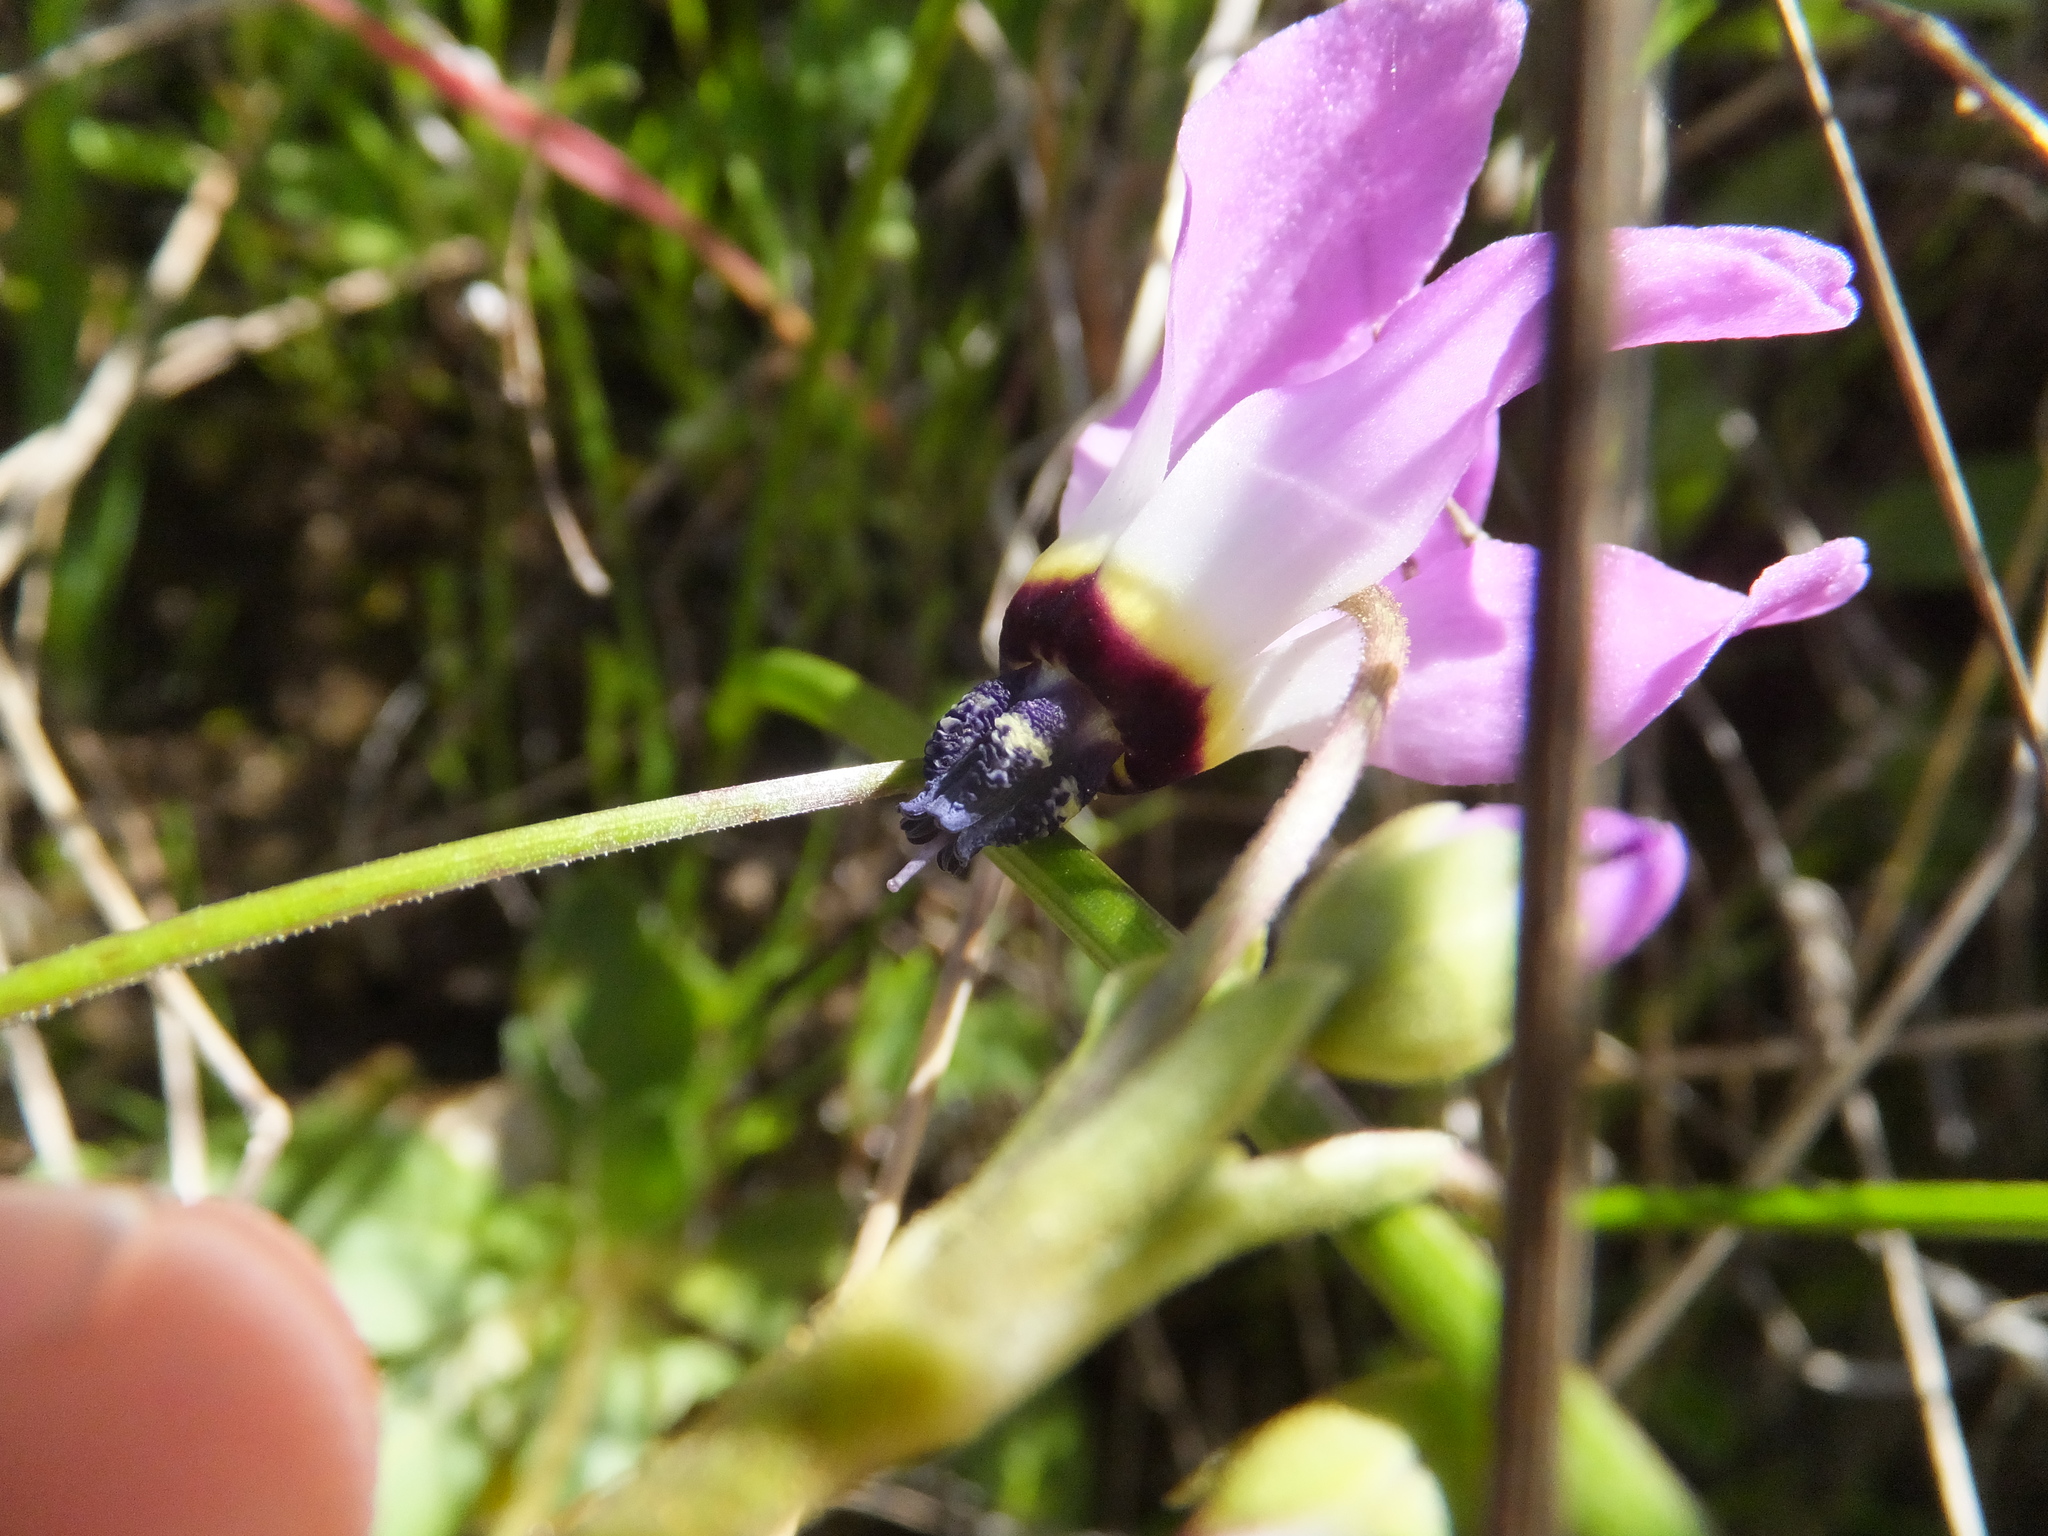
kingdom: Plantae
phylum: Tracheophyta
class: Magnoliopsida
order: Ericales
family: Primulaceae
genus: Dodecatheon
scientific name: Dodecatheon clevelandii
